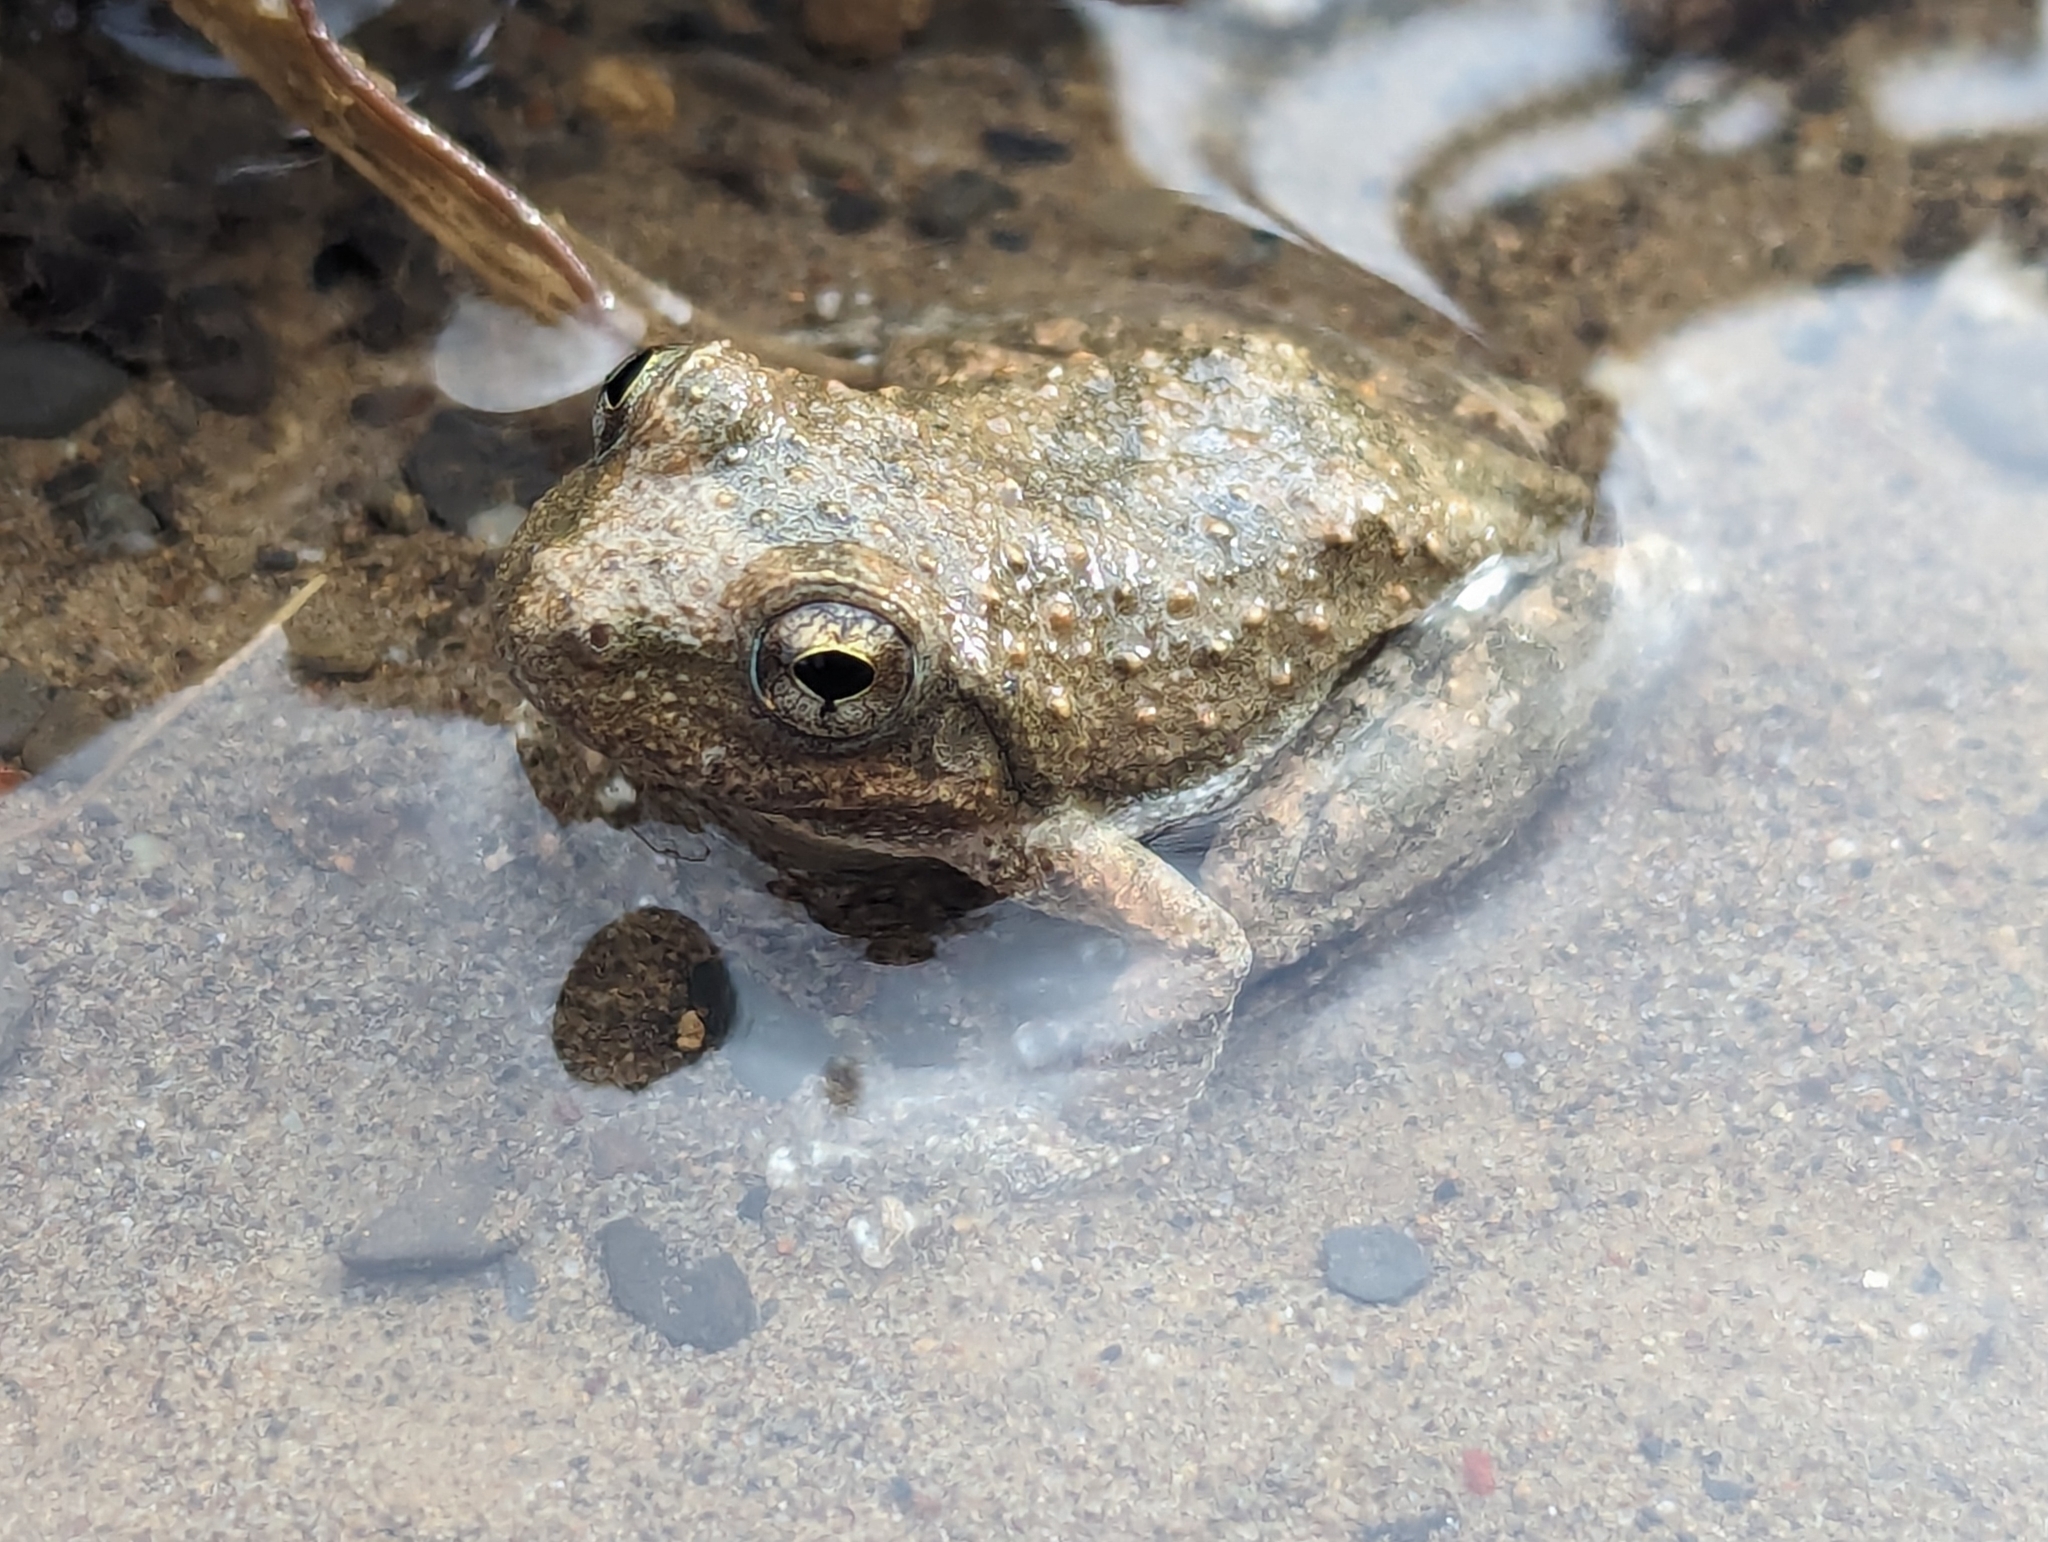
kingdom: Animalia
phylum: Chordata
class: Amphibia
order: Anura
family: Hylidae
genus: Pseudacris
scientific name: Pseudacris cadaverina
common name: California chorus frog
